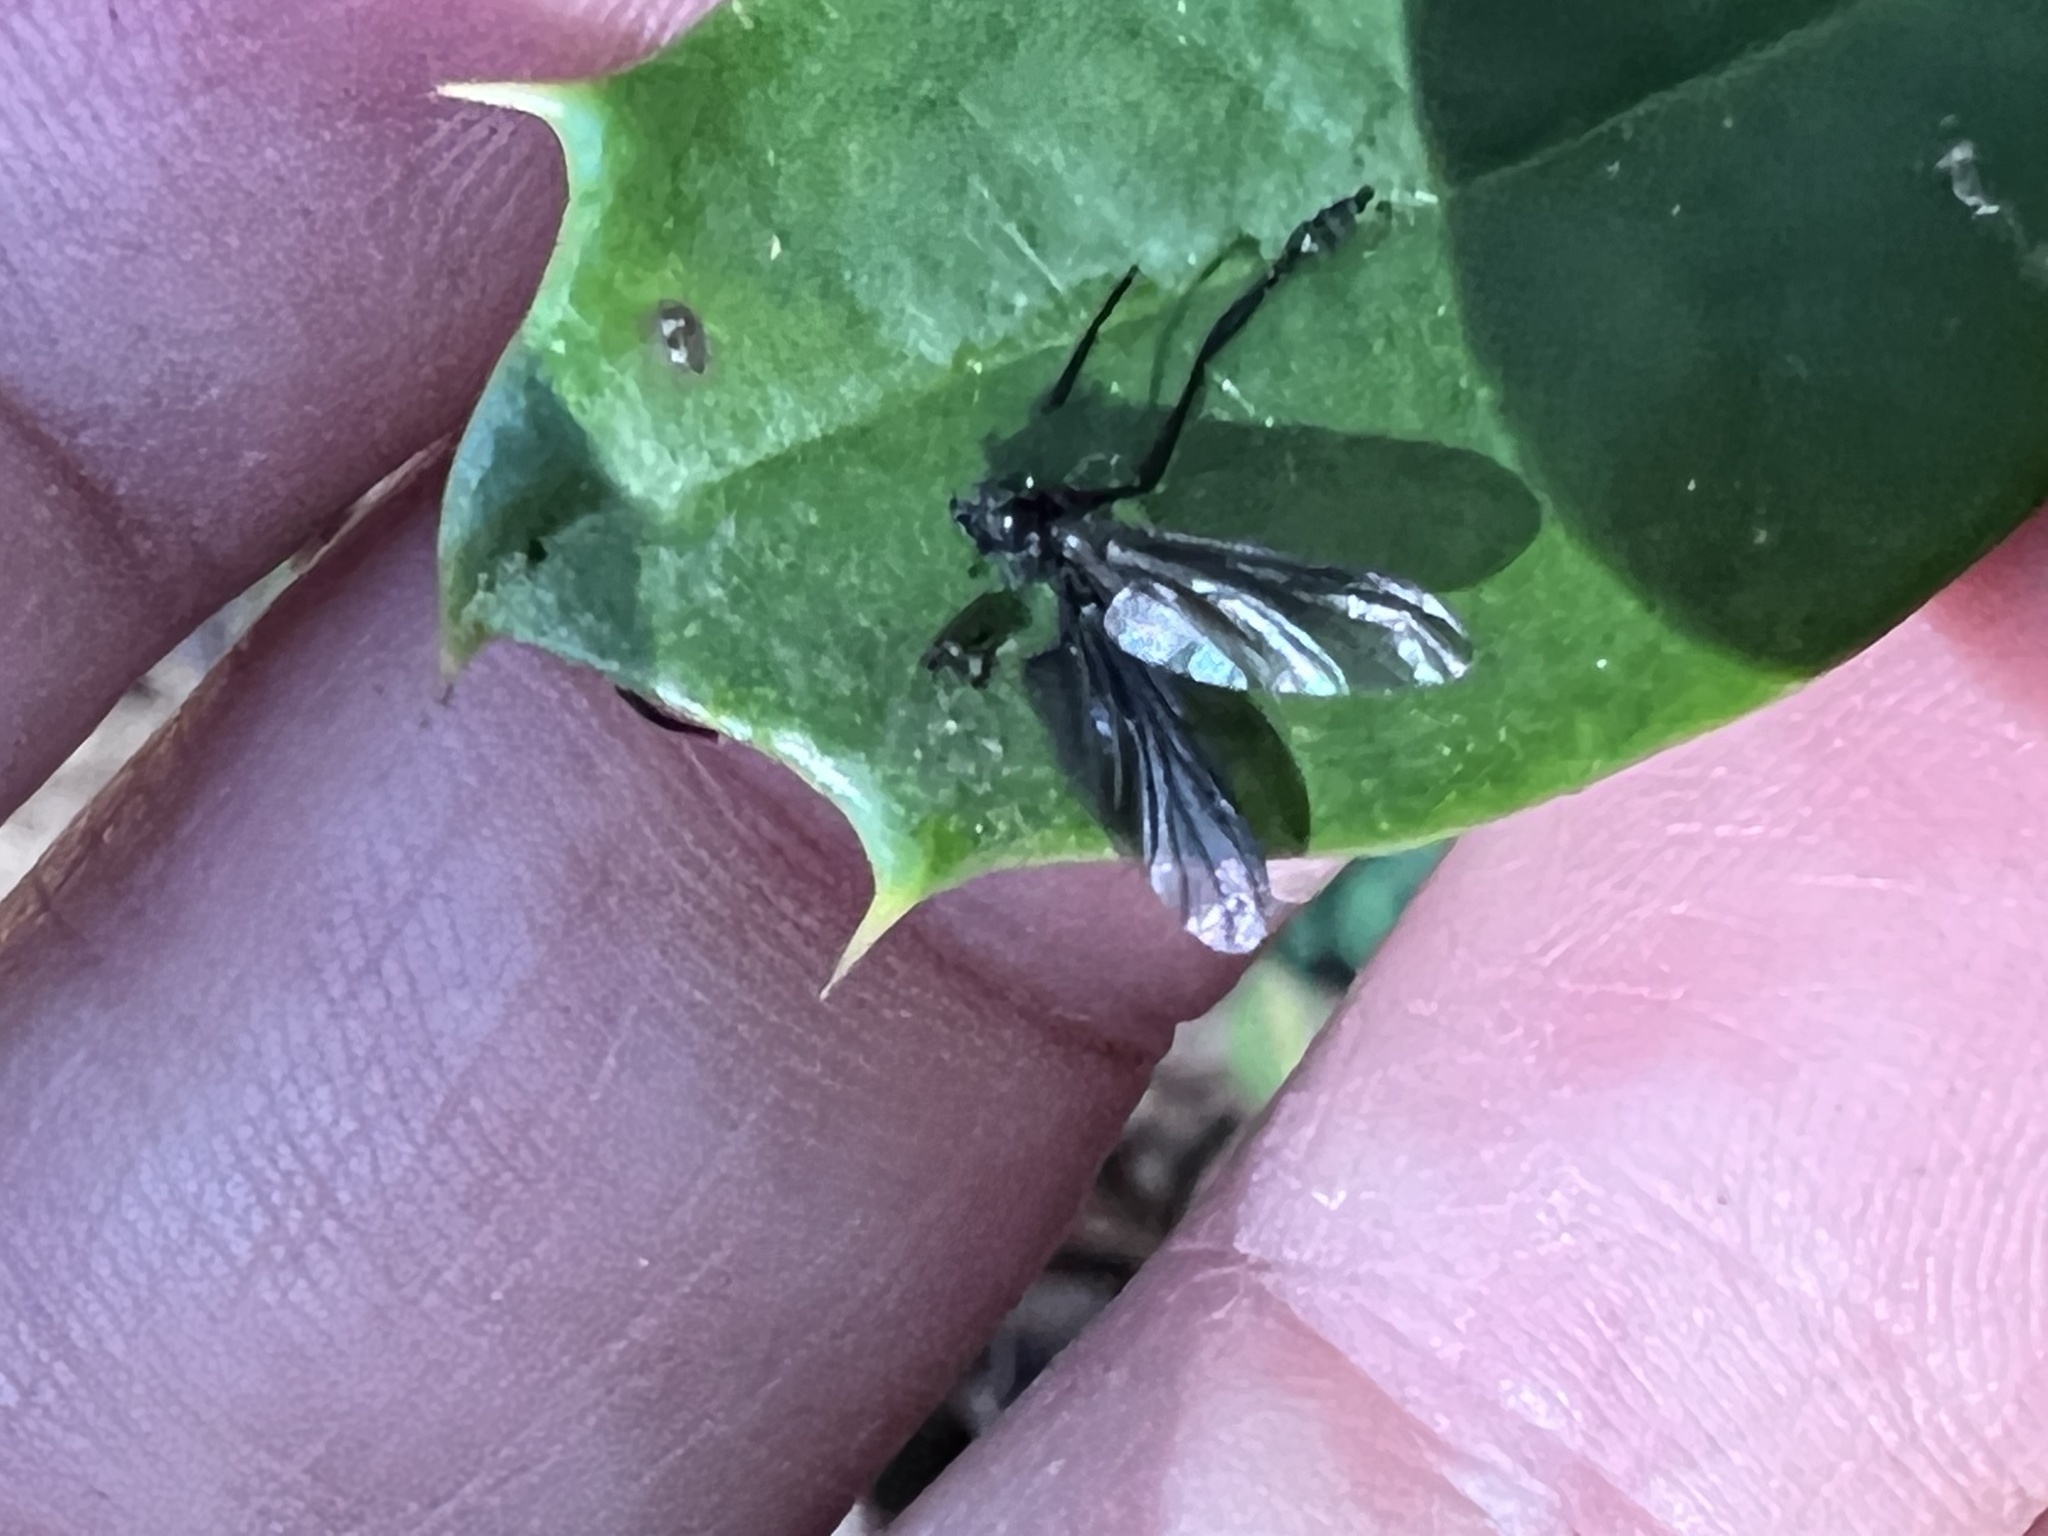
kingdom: Animalia
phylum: Arthropoda
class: Insecta
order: Diptera
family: Bibionidae
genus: Penthetria
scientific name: Penthetria heteroptera
